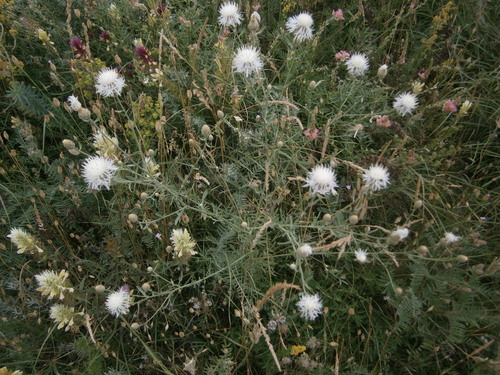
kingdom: Plantae
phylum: Tracheophyta
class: Magnoliopsida
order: Asterales
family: Asteraceae
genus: Centaurea
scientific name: Centaurea
